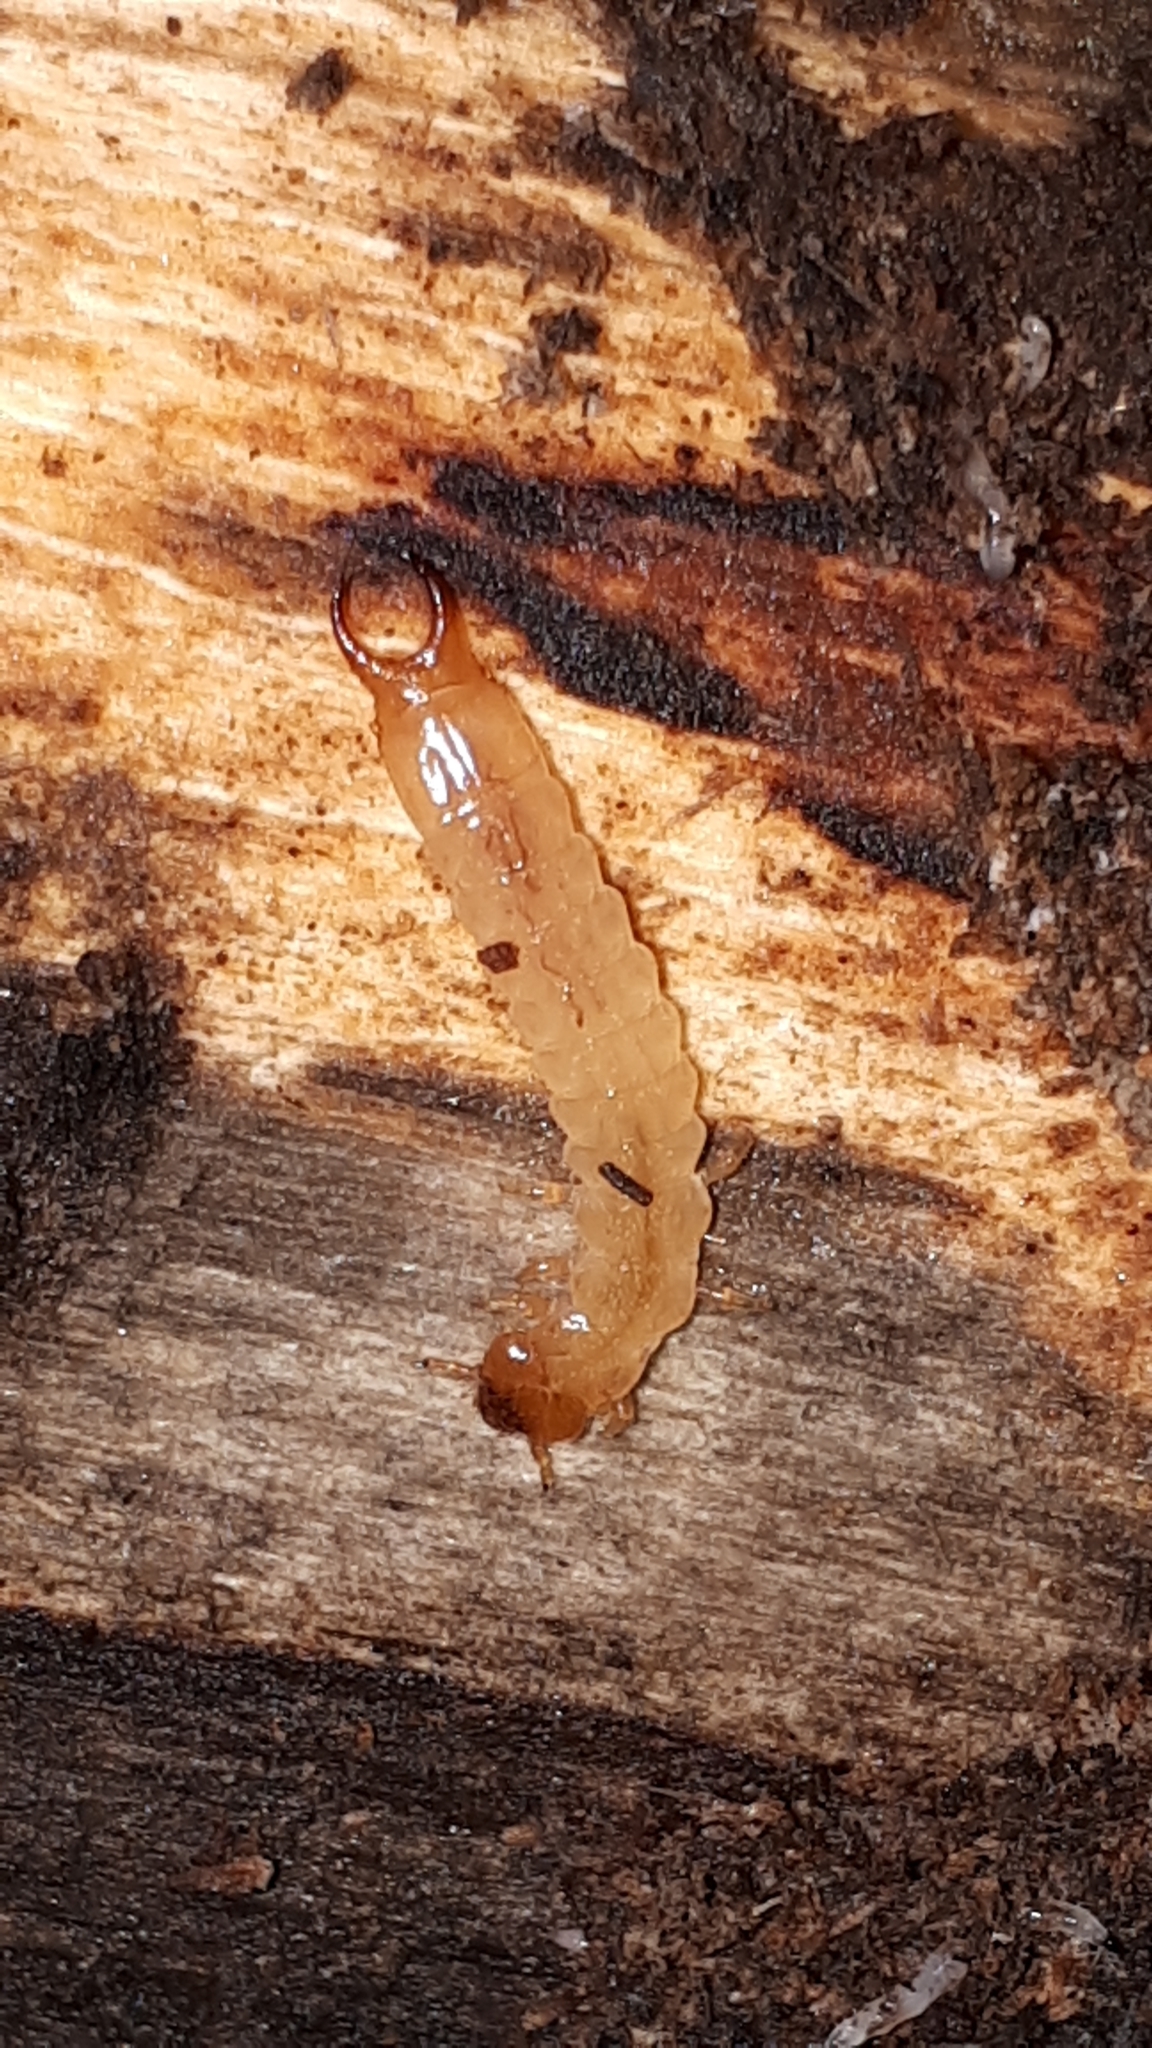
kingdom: Animalia
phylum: Arthropoda
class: Insecta
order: Coleoptera
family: Pyrochroidae
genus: Schizotus
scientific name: Schizotus pectinicornis
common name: Scarce cardinal beetle
